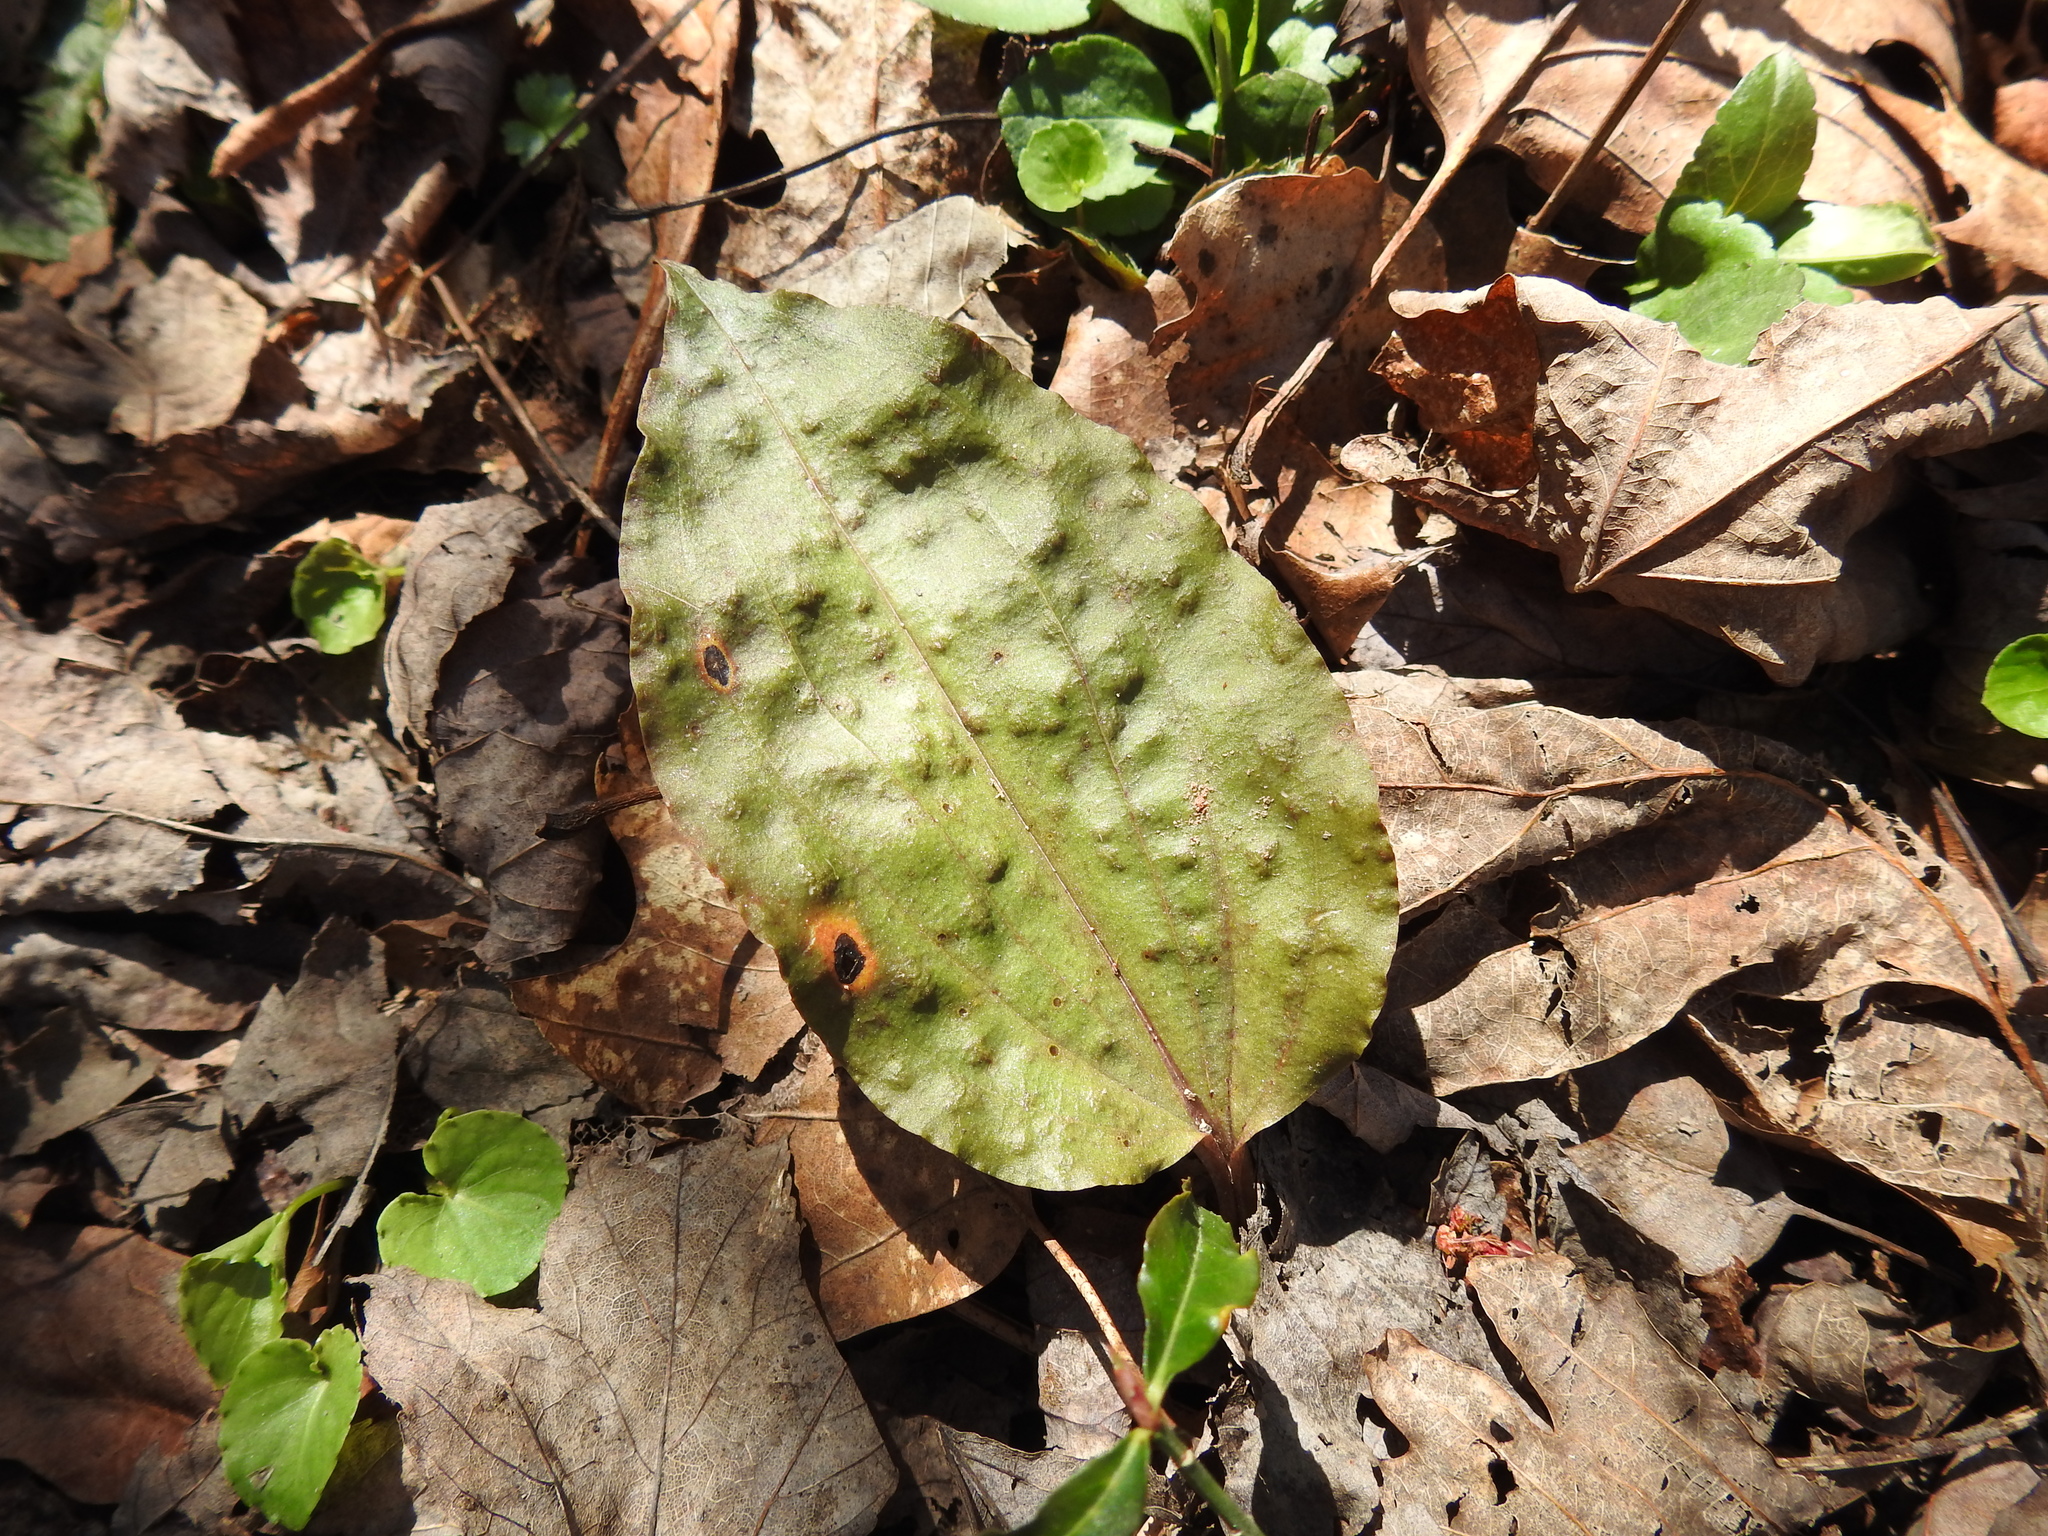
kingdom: Plantae
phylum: Tracheophyta
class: Liliopsida
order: Asparagales
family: Orchidaceae
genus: Tipularia
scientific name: Tipularia discolor
